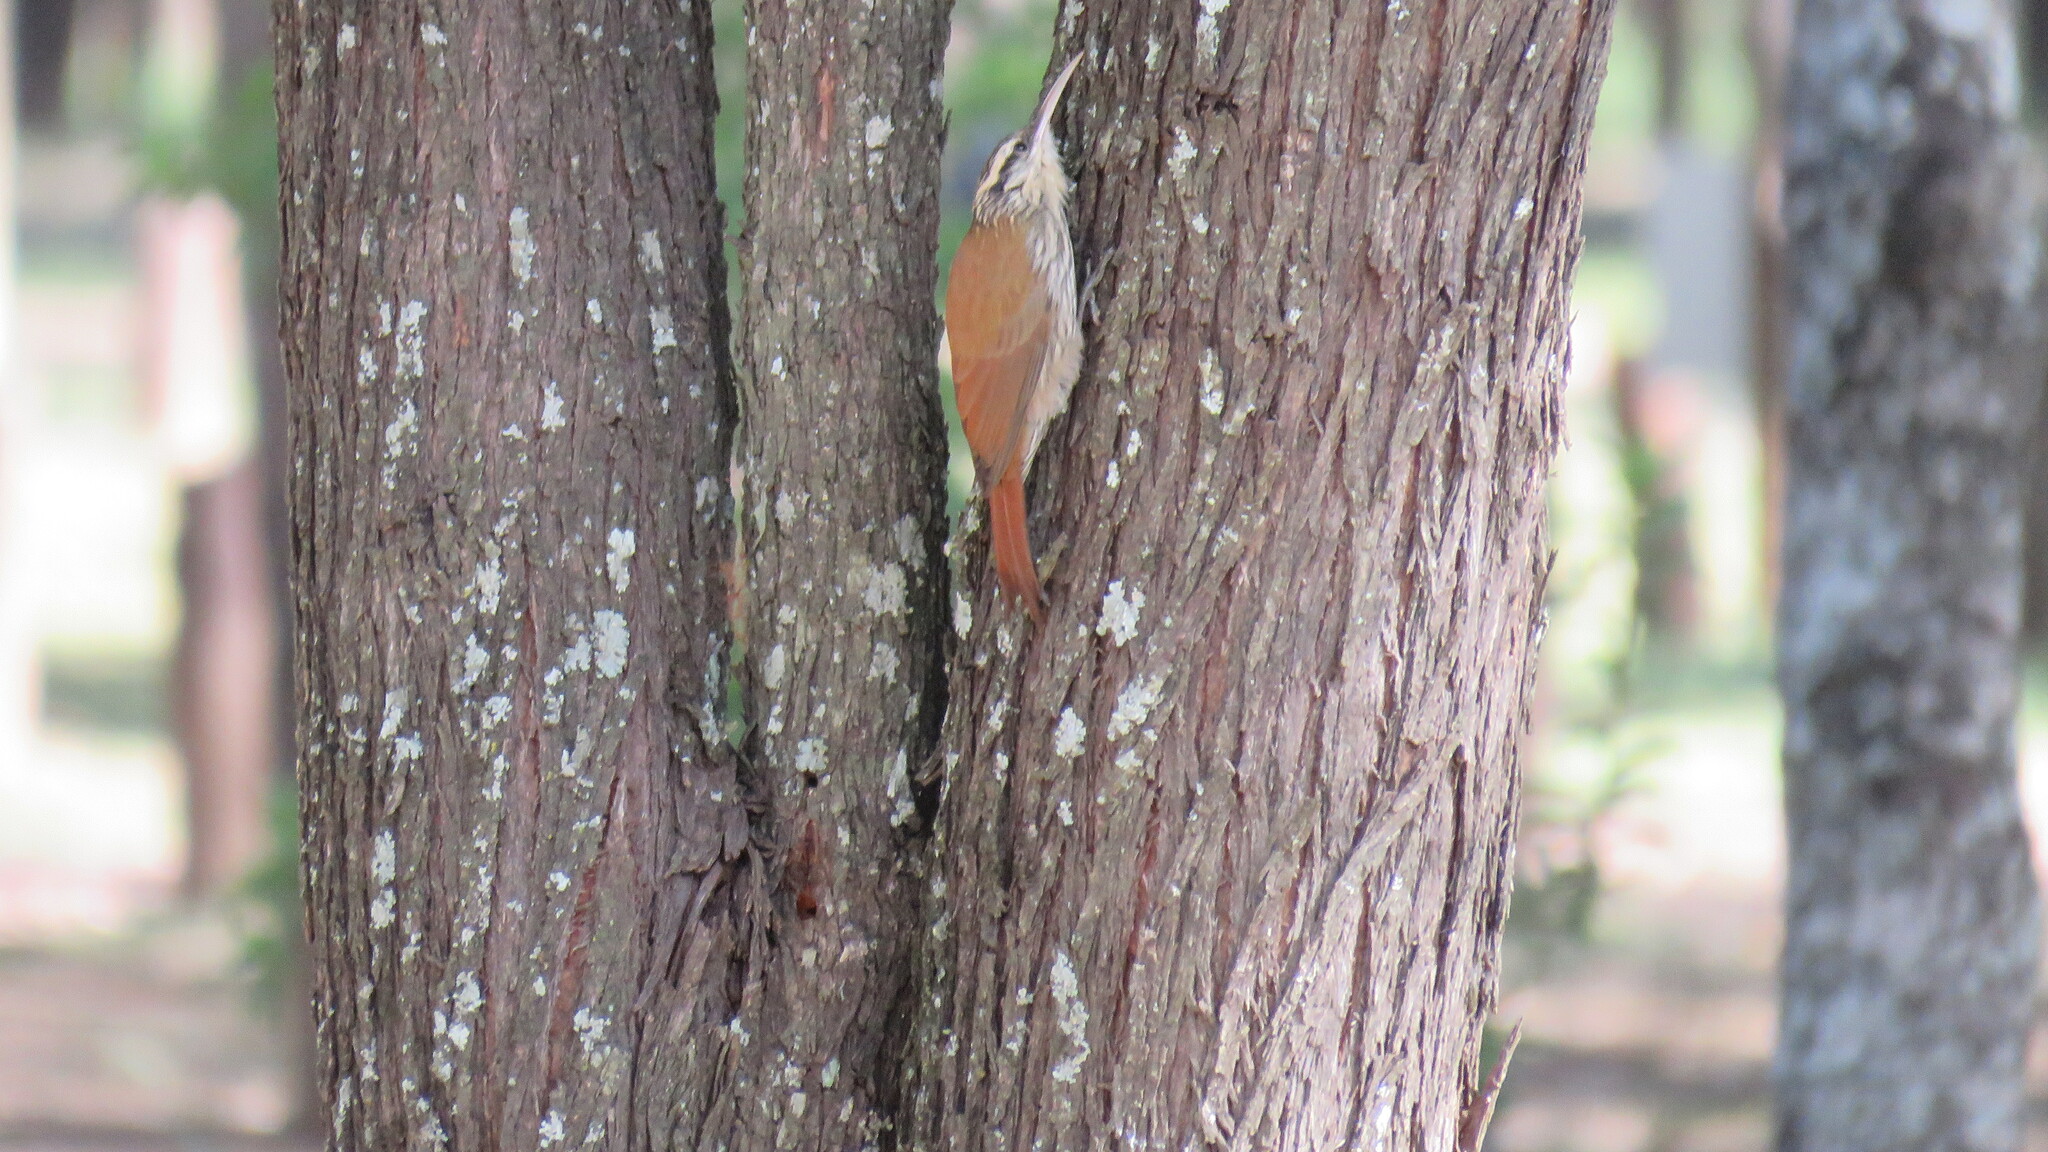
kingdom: Animalia
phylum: Chordata
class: Aves
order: Passeriformes
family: Furnariidae
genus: Lepidocolaptes
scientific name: Lepidocolaptes angustirostris
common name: Narrow-billed woodcreeper
